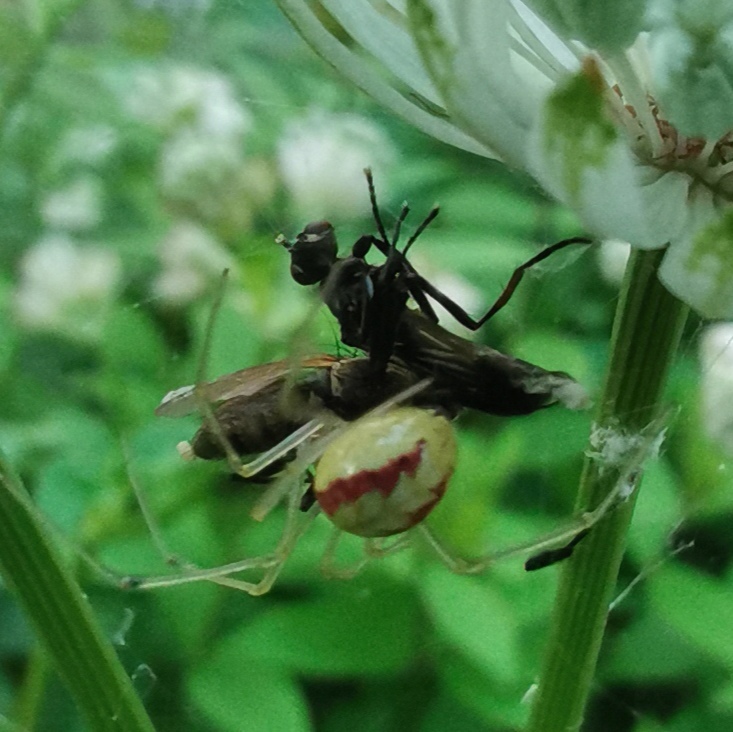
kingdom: Animalia
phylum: Arthropoda
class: Arachnida
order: Araneae
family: Theridiidae
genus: Enoplognatha
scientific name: Enoplognatha ovata
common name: Common candy-striped spider
